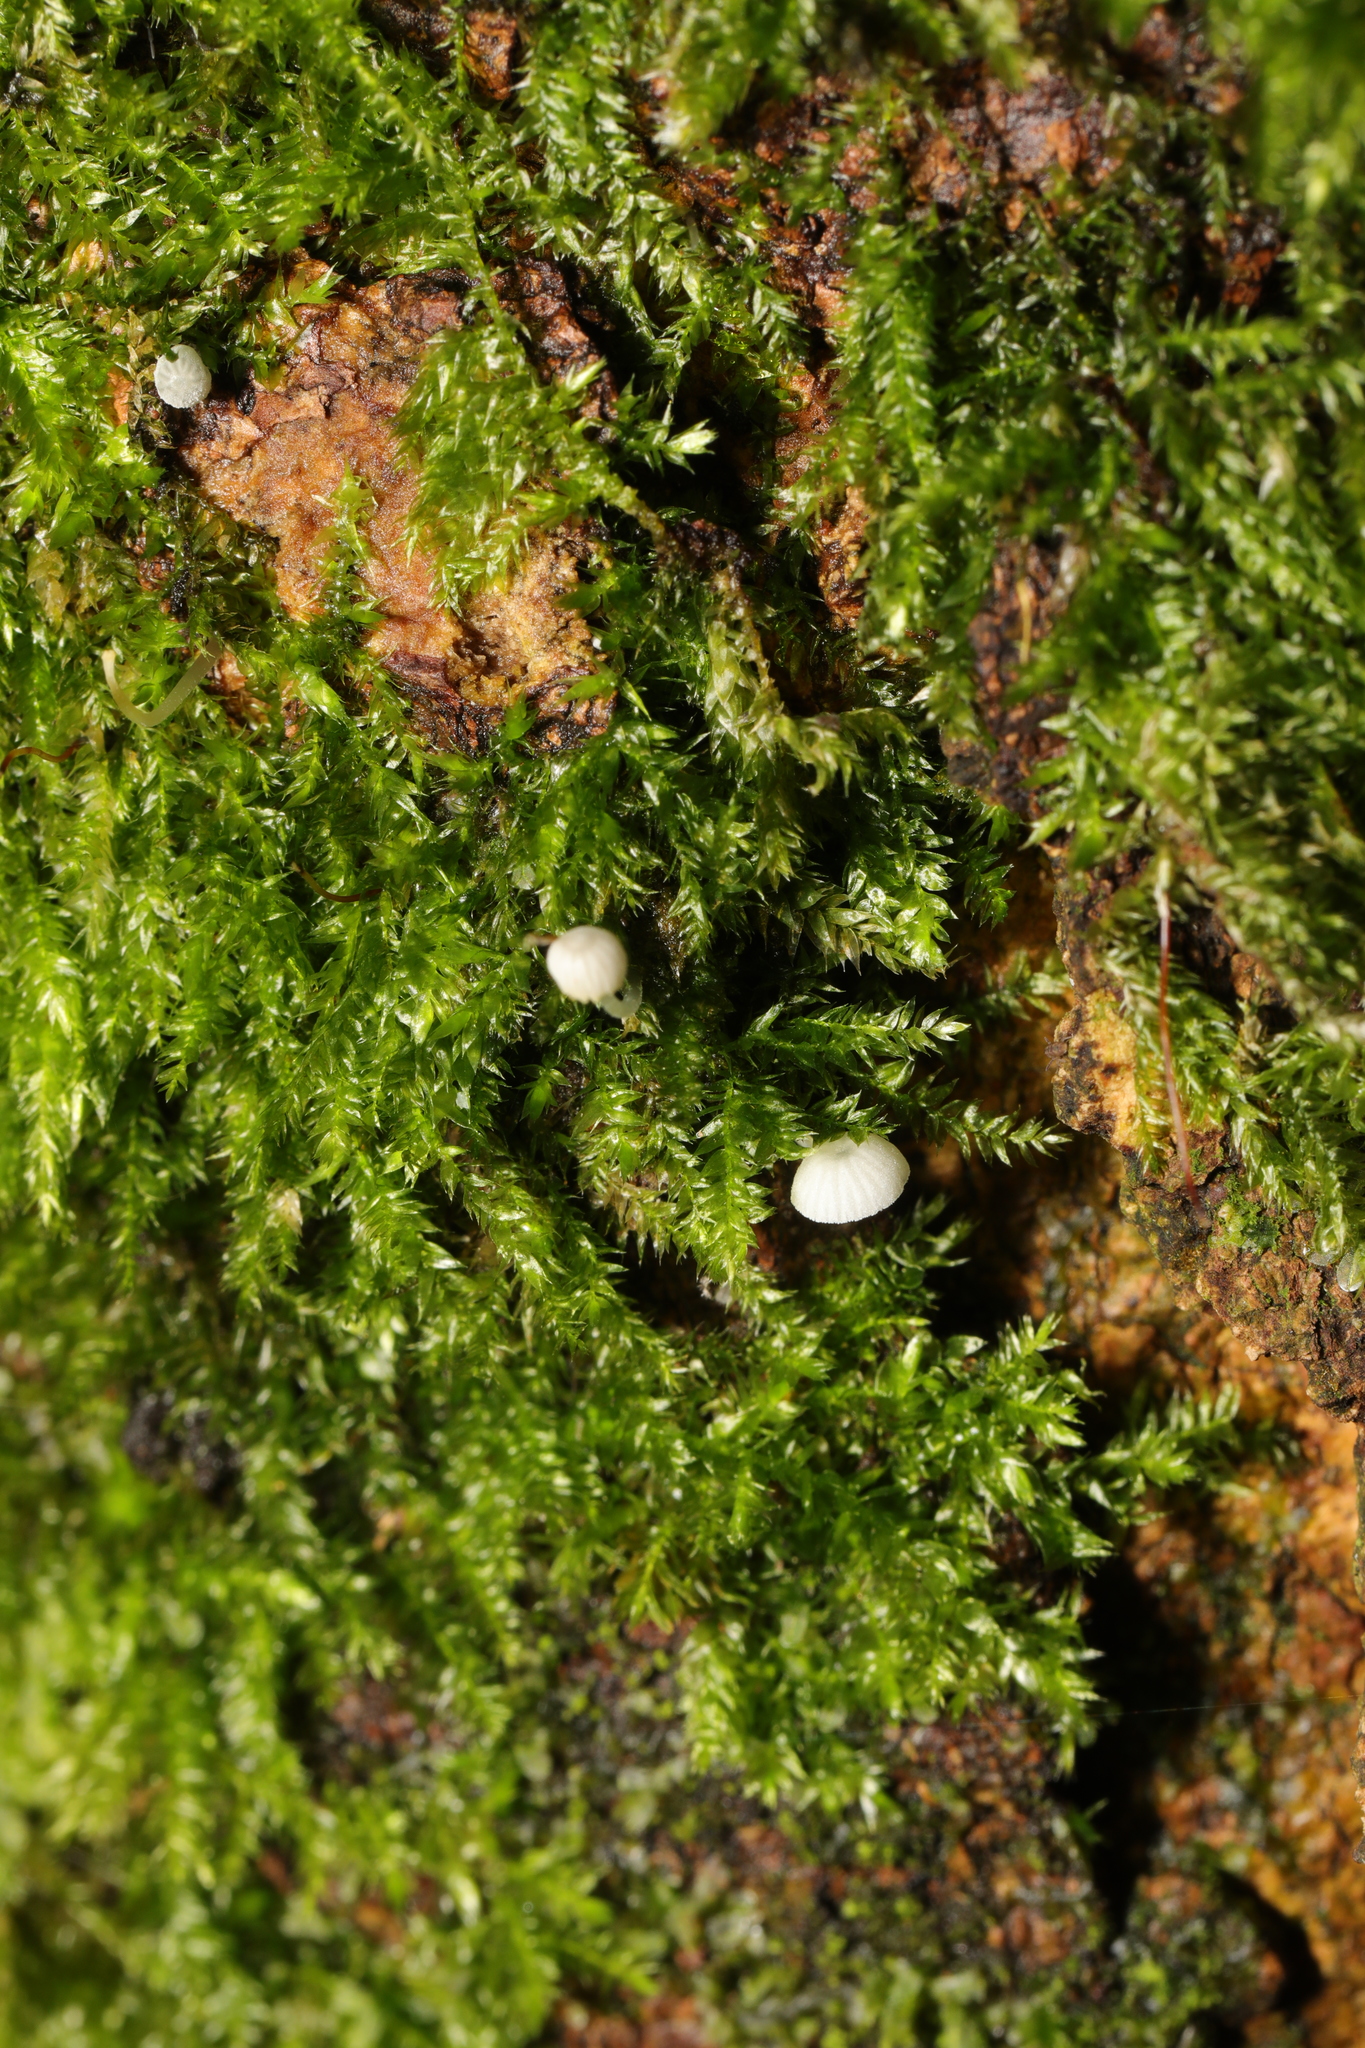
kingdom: Fungi
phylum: Basidiomycota
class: Agaricomycetes
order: Agaricales
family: Mycenaceae
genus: Mycena
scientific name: Mycena
